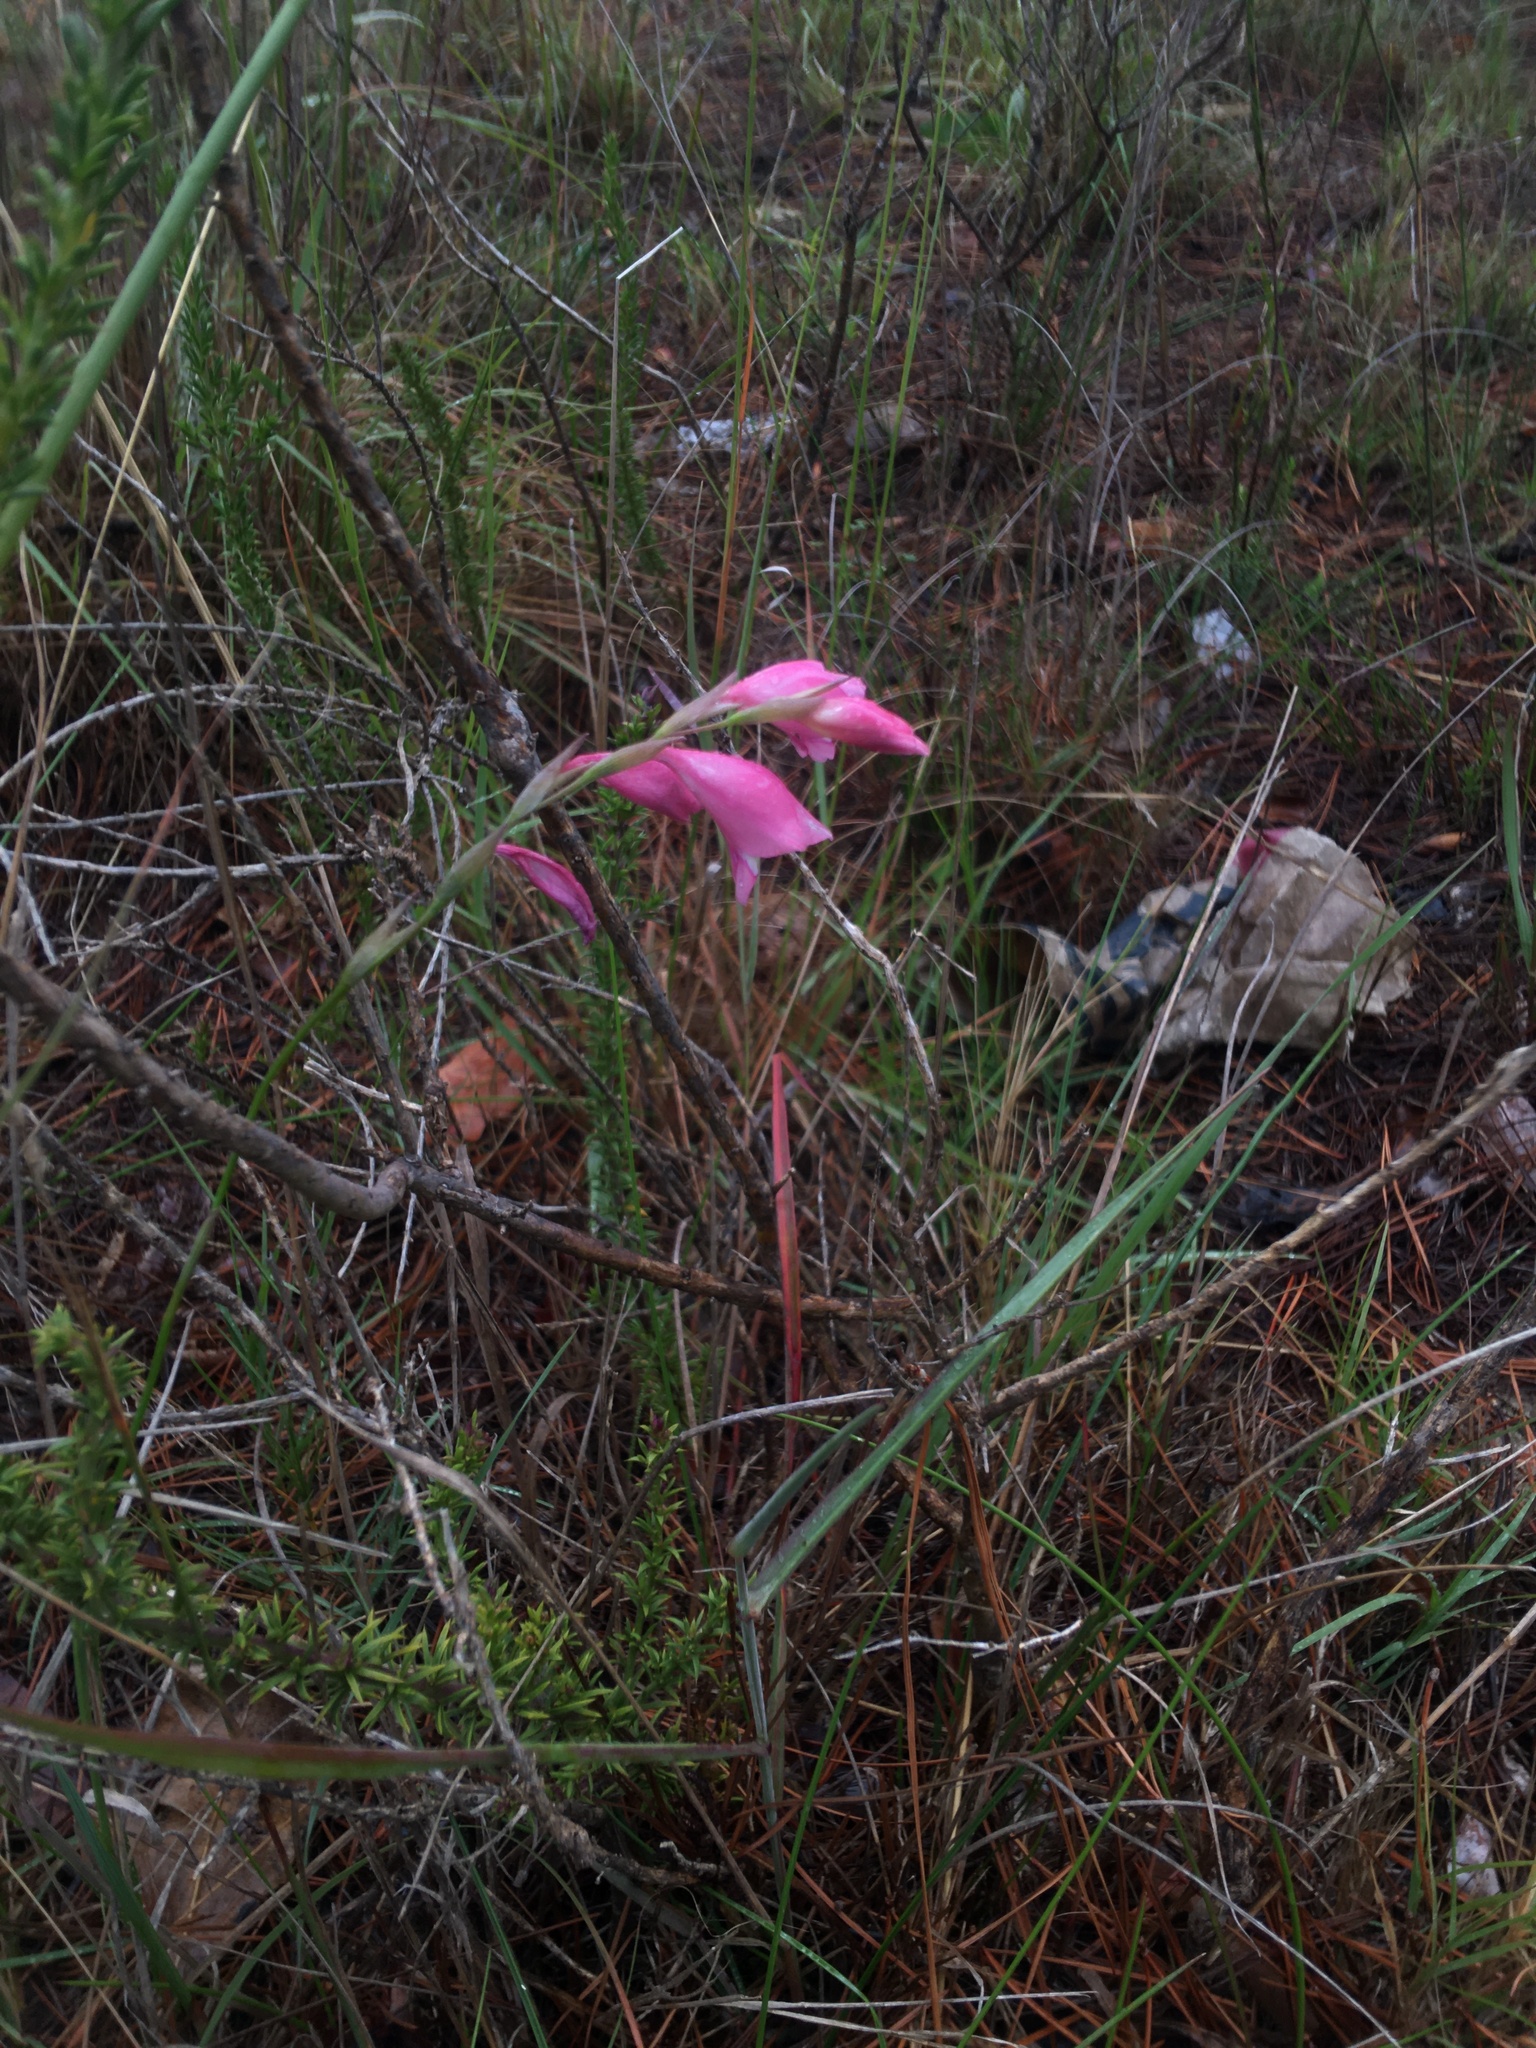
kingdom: Plantae
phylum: Tracheophyta
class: Liliopsida
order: Asparagales
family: Iridaceae
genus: Gladiolus
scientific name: Gladiolus brevifolius
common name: March pypie
